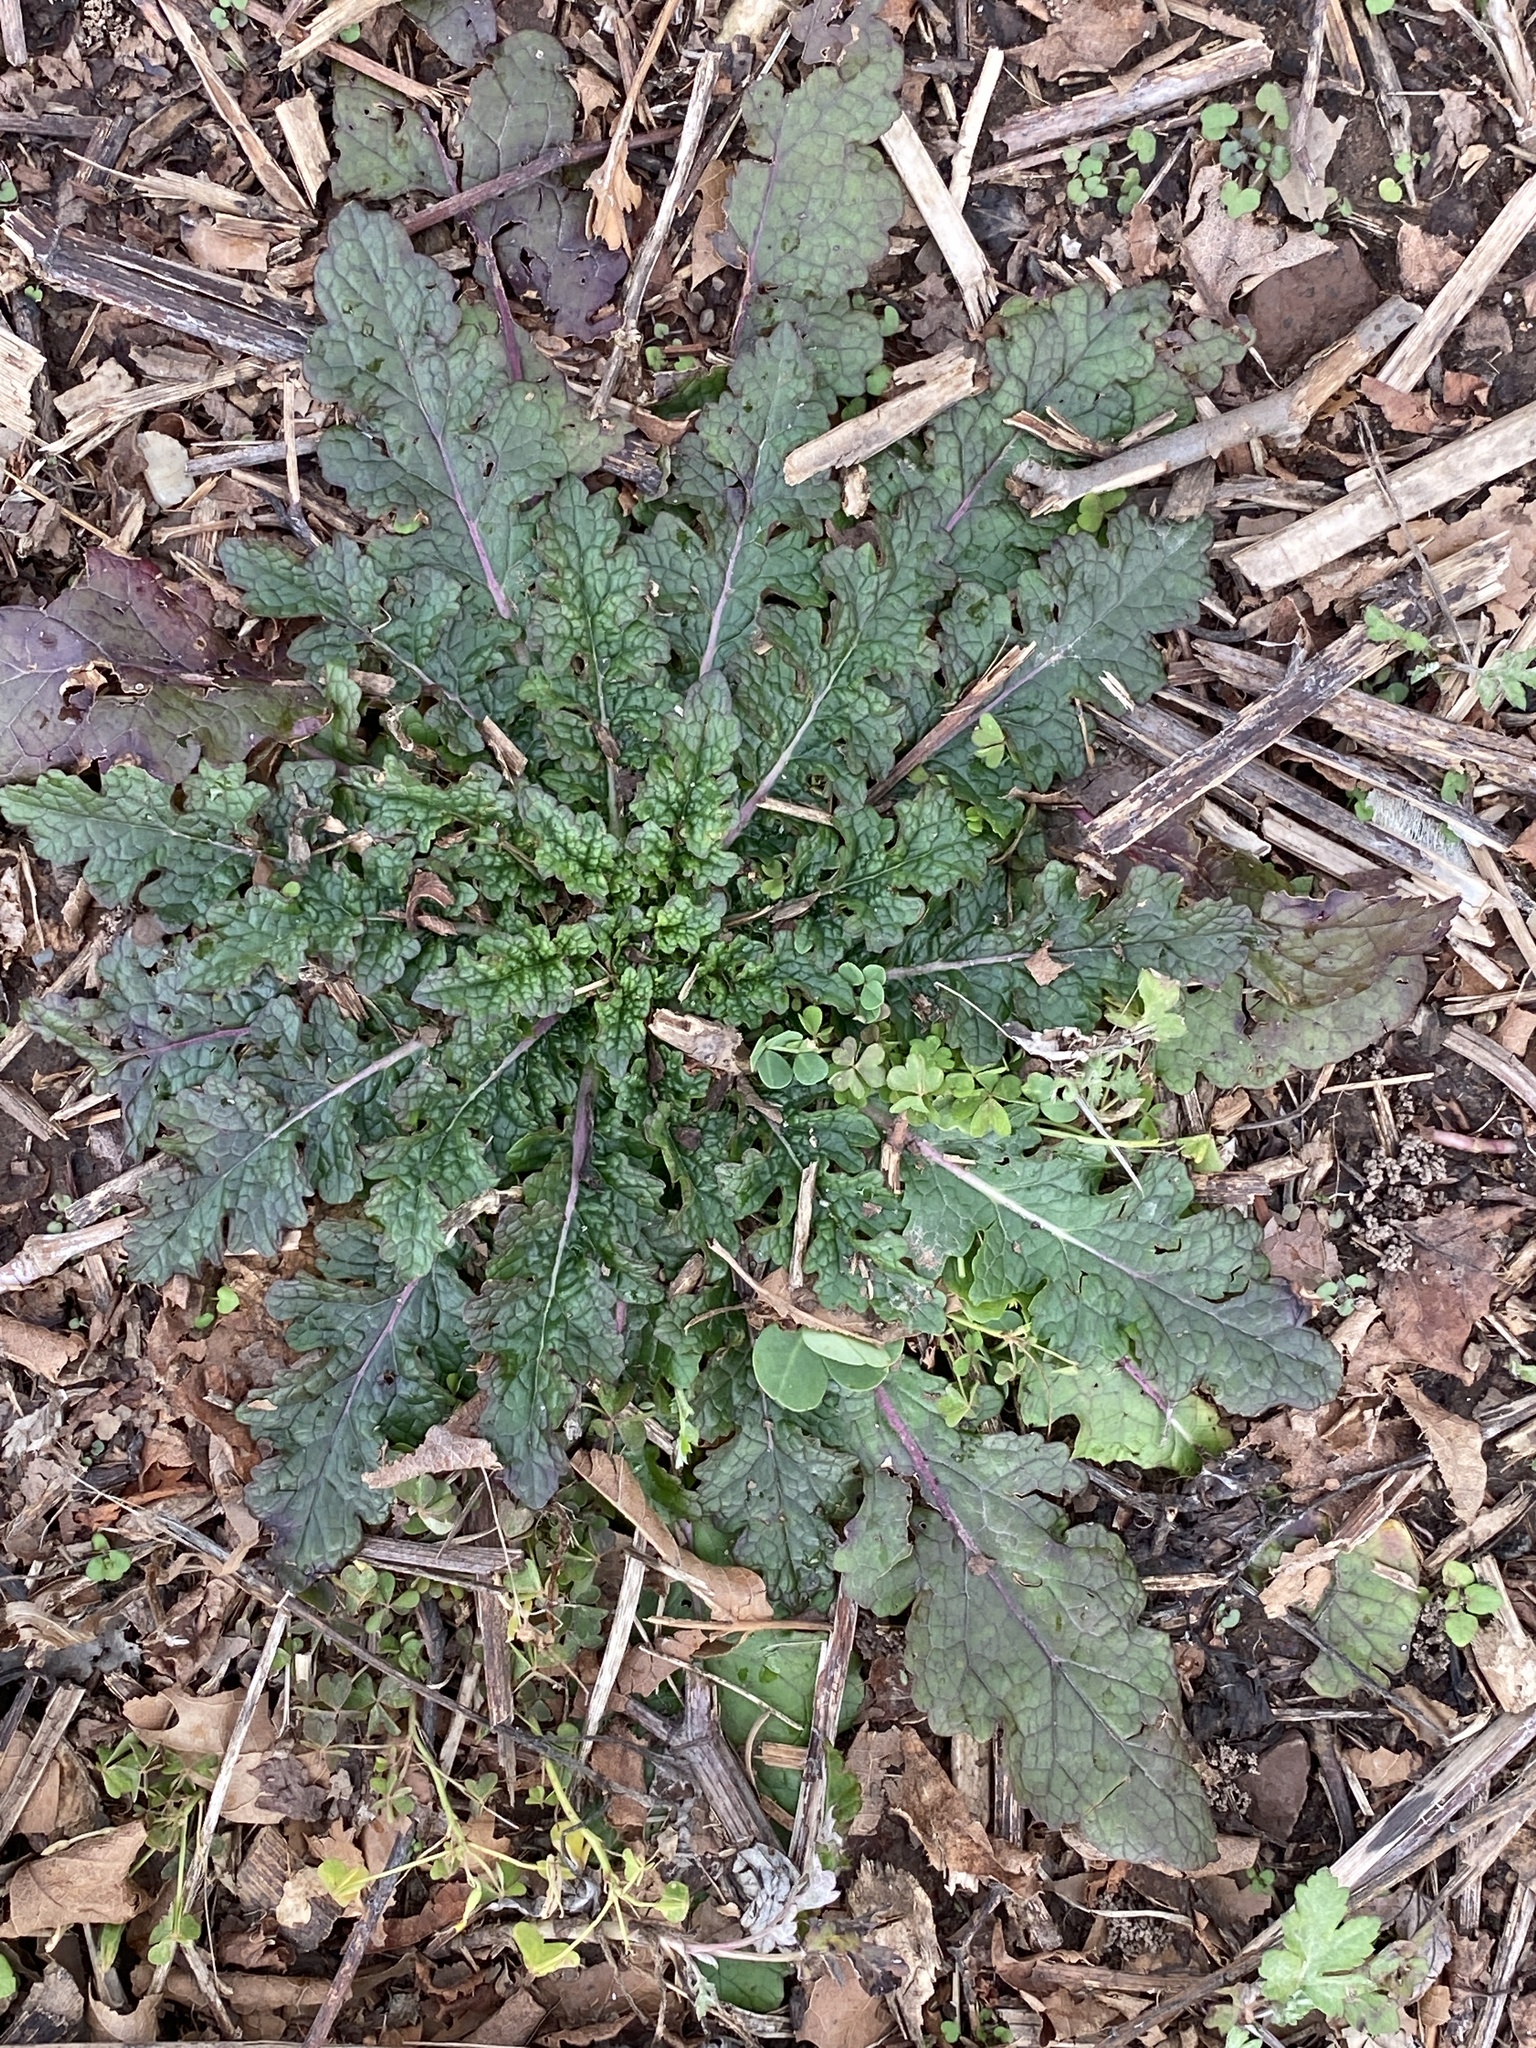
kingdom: Plantae
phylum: Tracheophyta
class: Magnoliopsida
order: Lamiales
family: Scrophulariaceae
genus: Verbascum
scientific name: Verbascum blattaria
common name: Moth mullein
